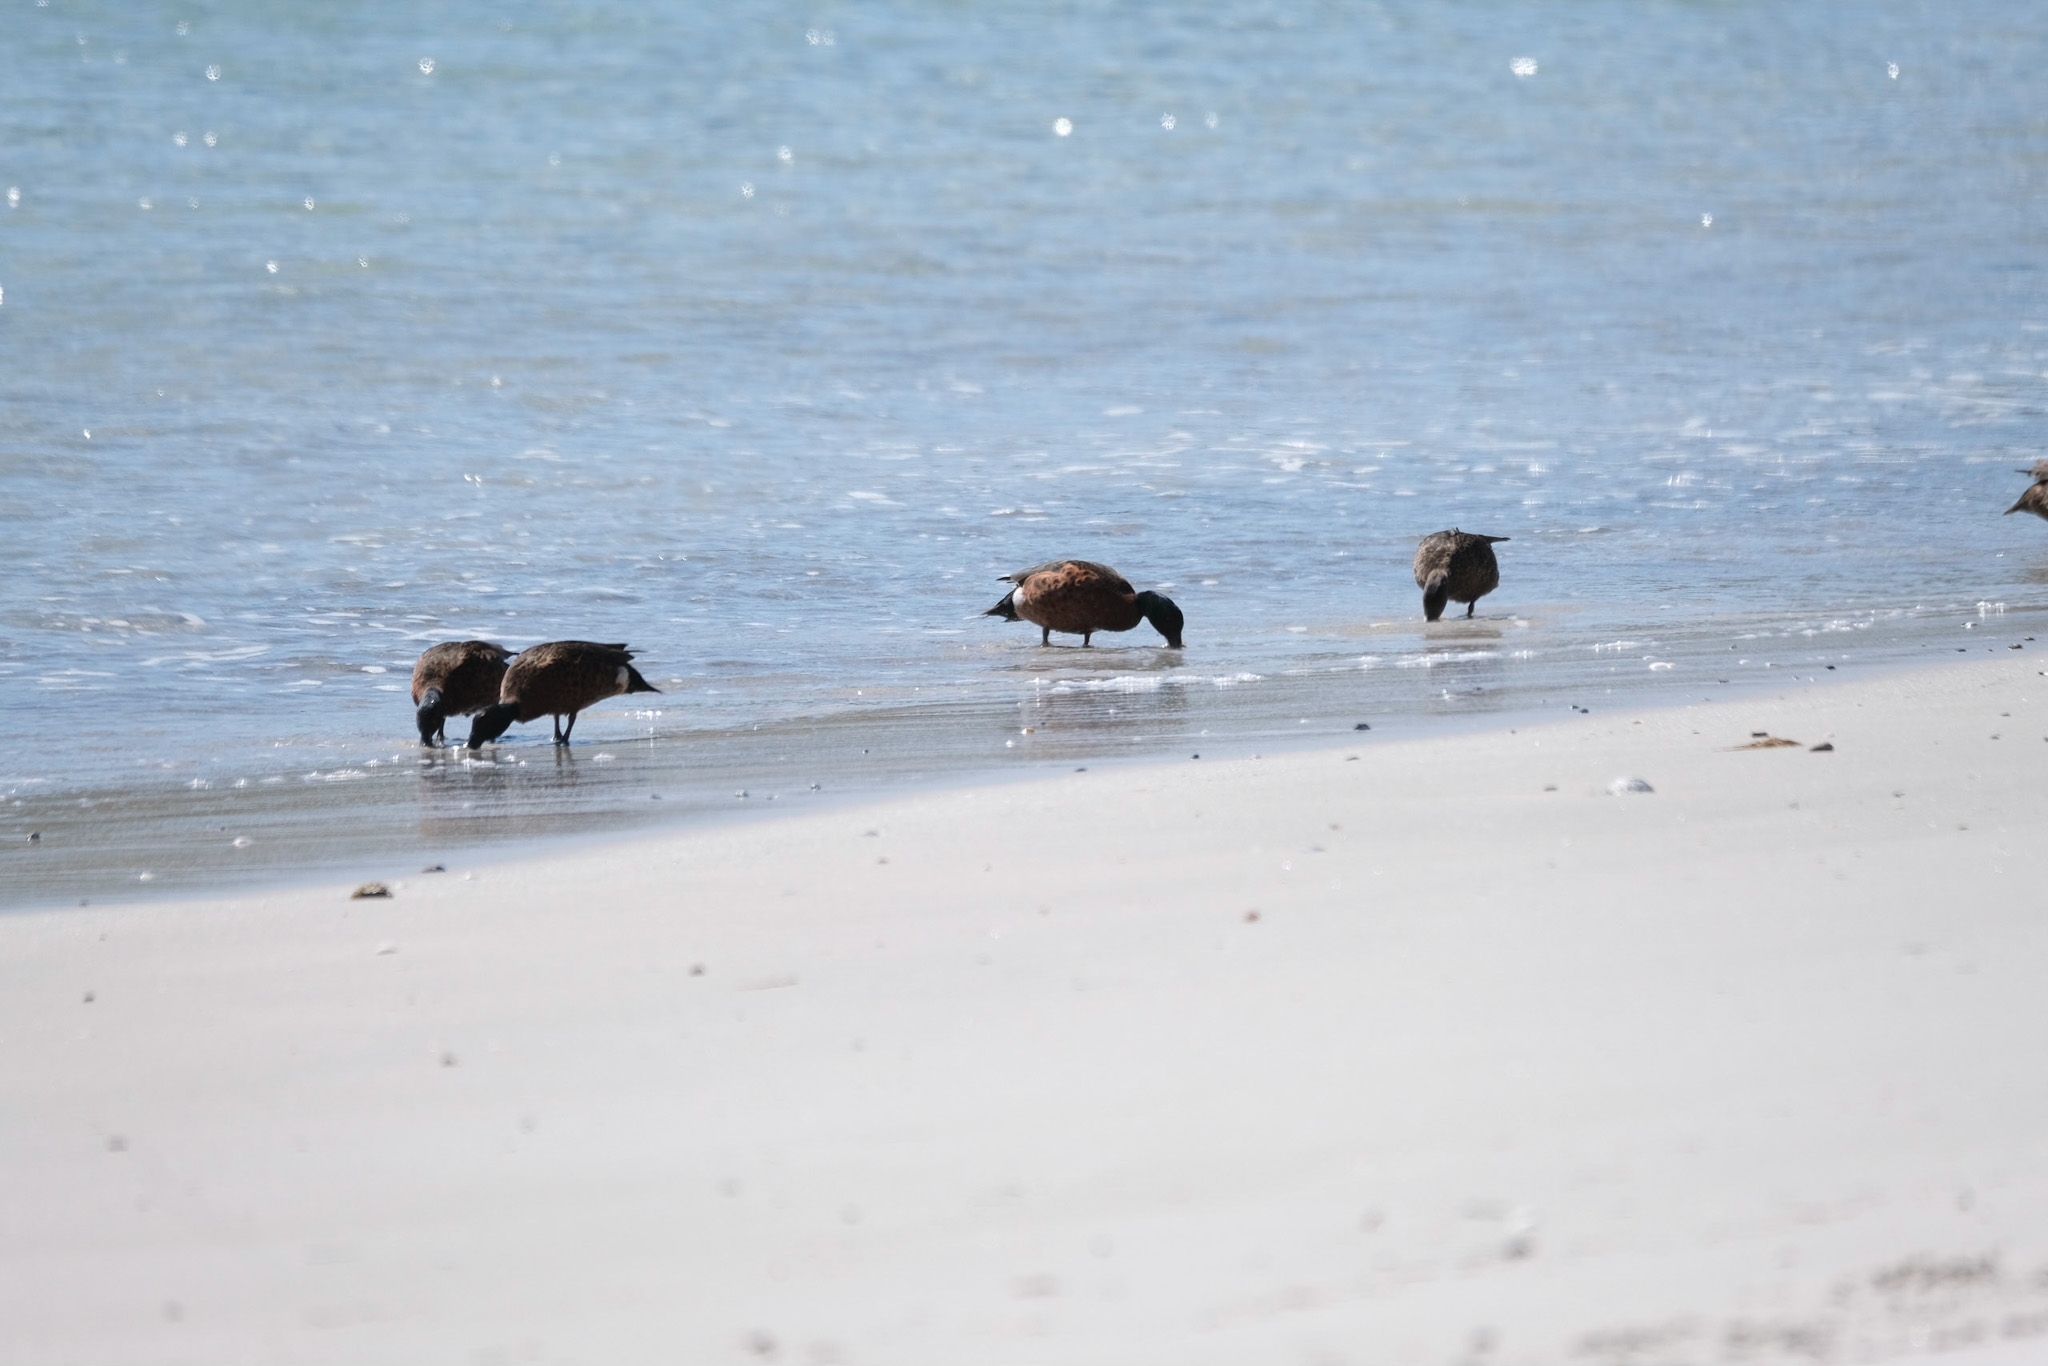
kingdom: Animalia
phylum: Chordata
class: Aves
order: Anseriformes
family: Anatidae
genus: Anas
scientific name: Anas castanea
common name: Chestnut teal
